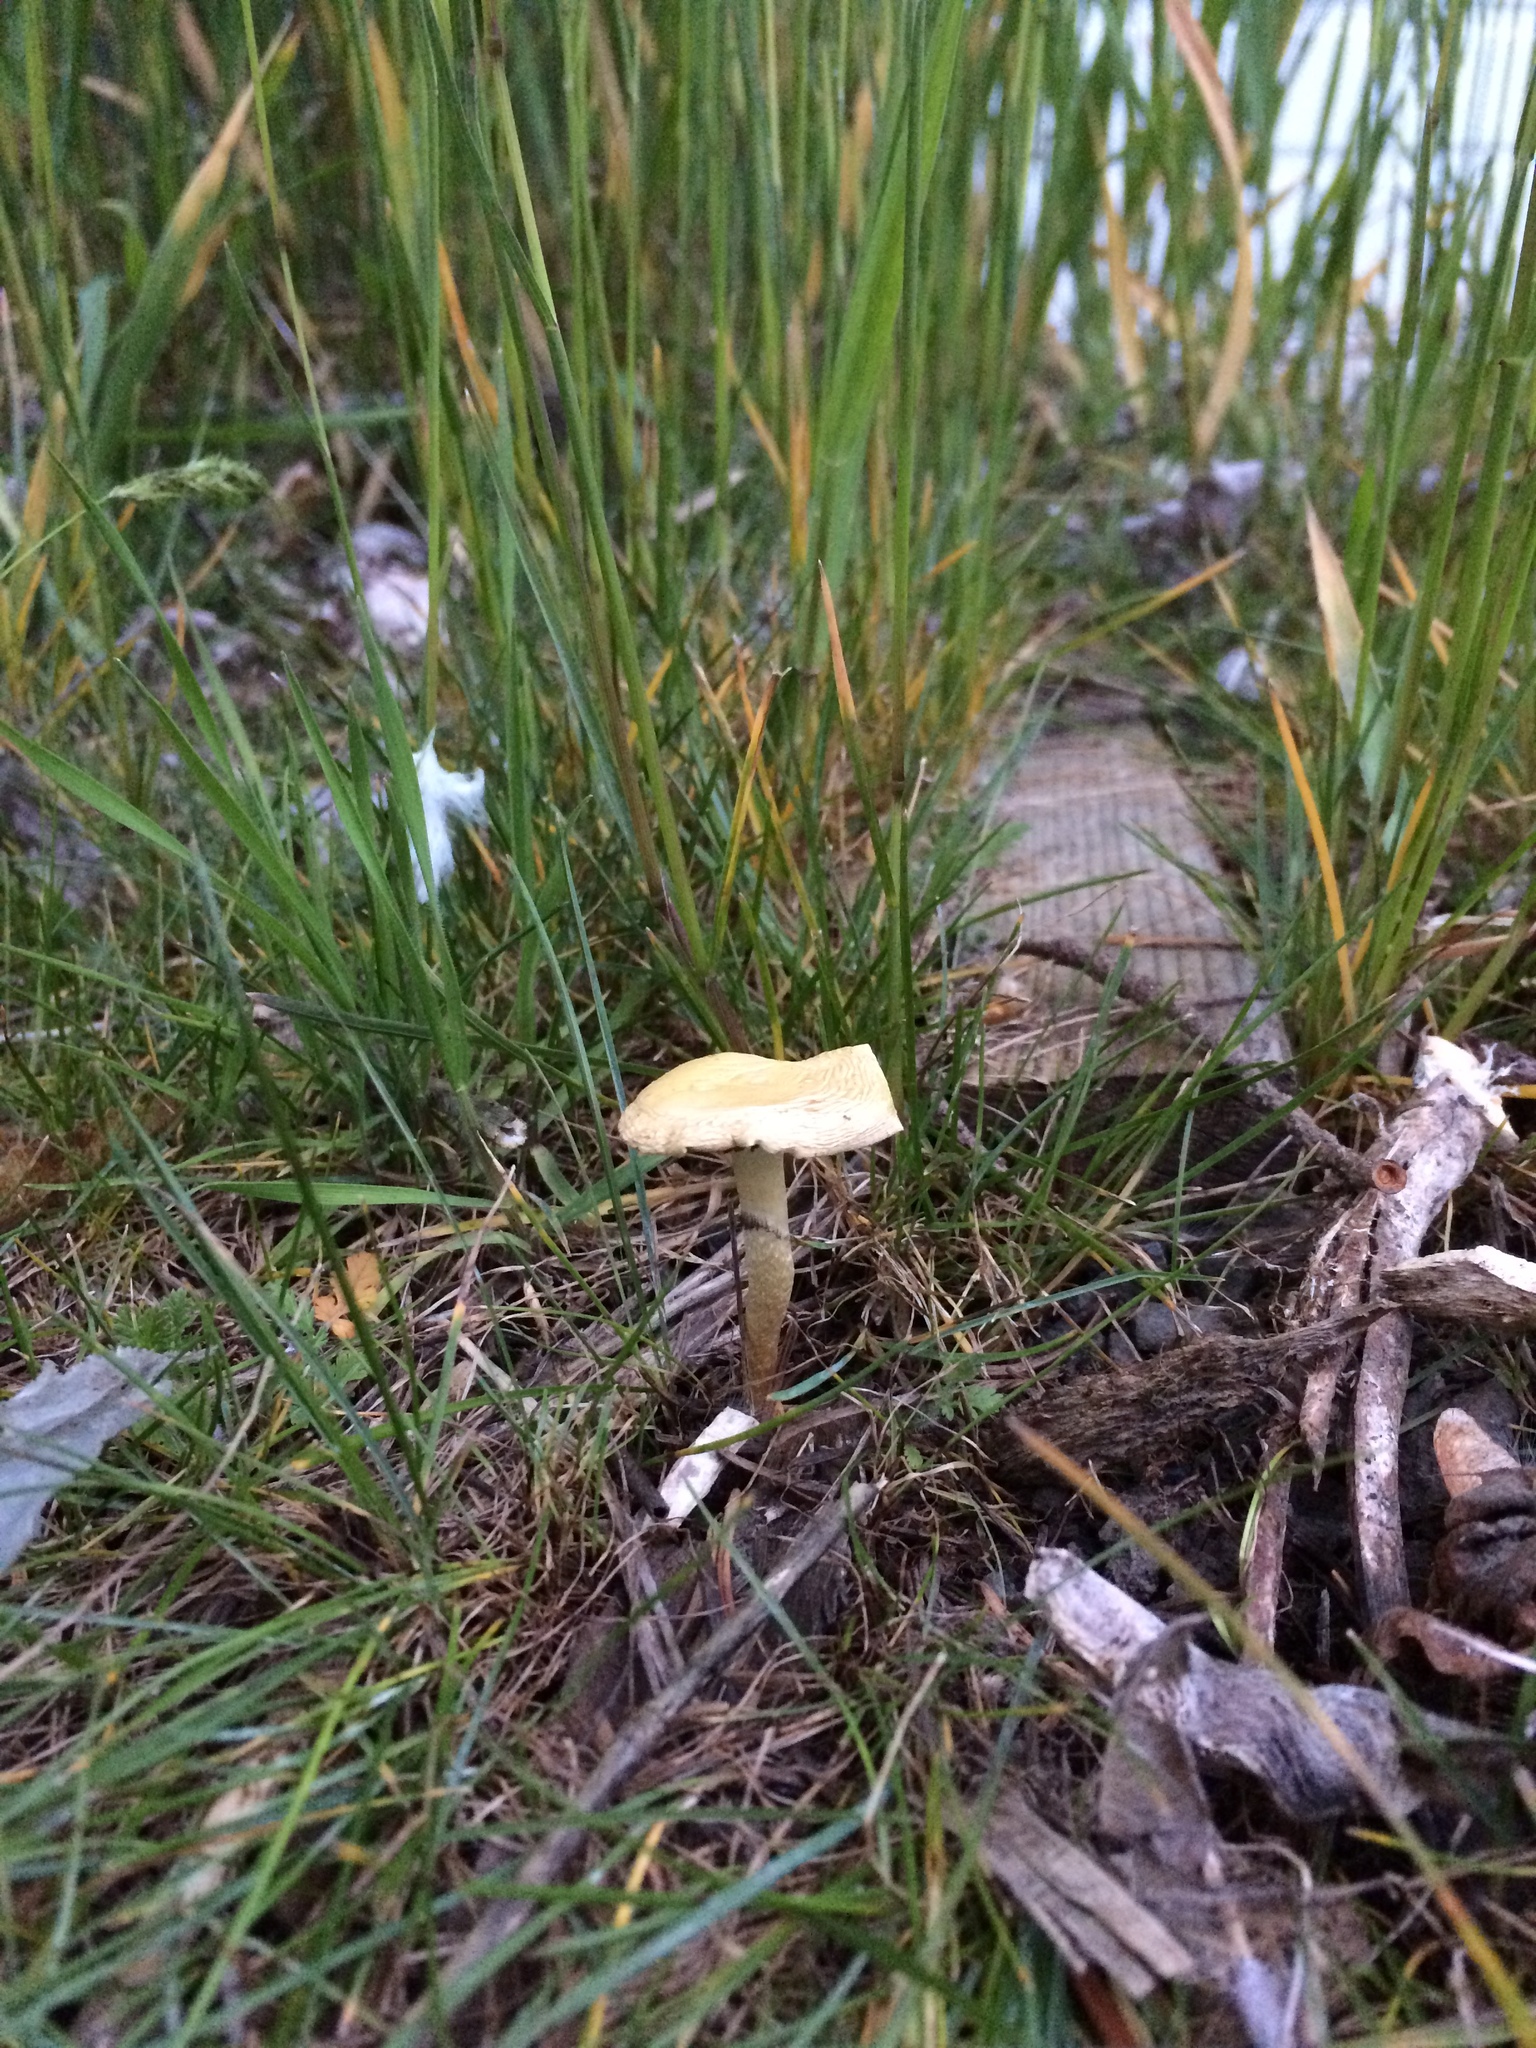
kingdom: Fungi
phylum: Basidiomycota
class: Agaricomycetes
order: Agaricales
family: Strophariaceae
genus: Leratiomyces
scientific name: Leratiomyces percevalii
